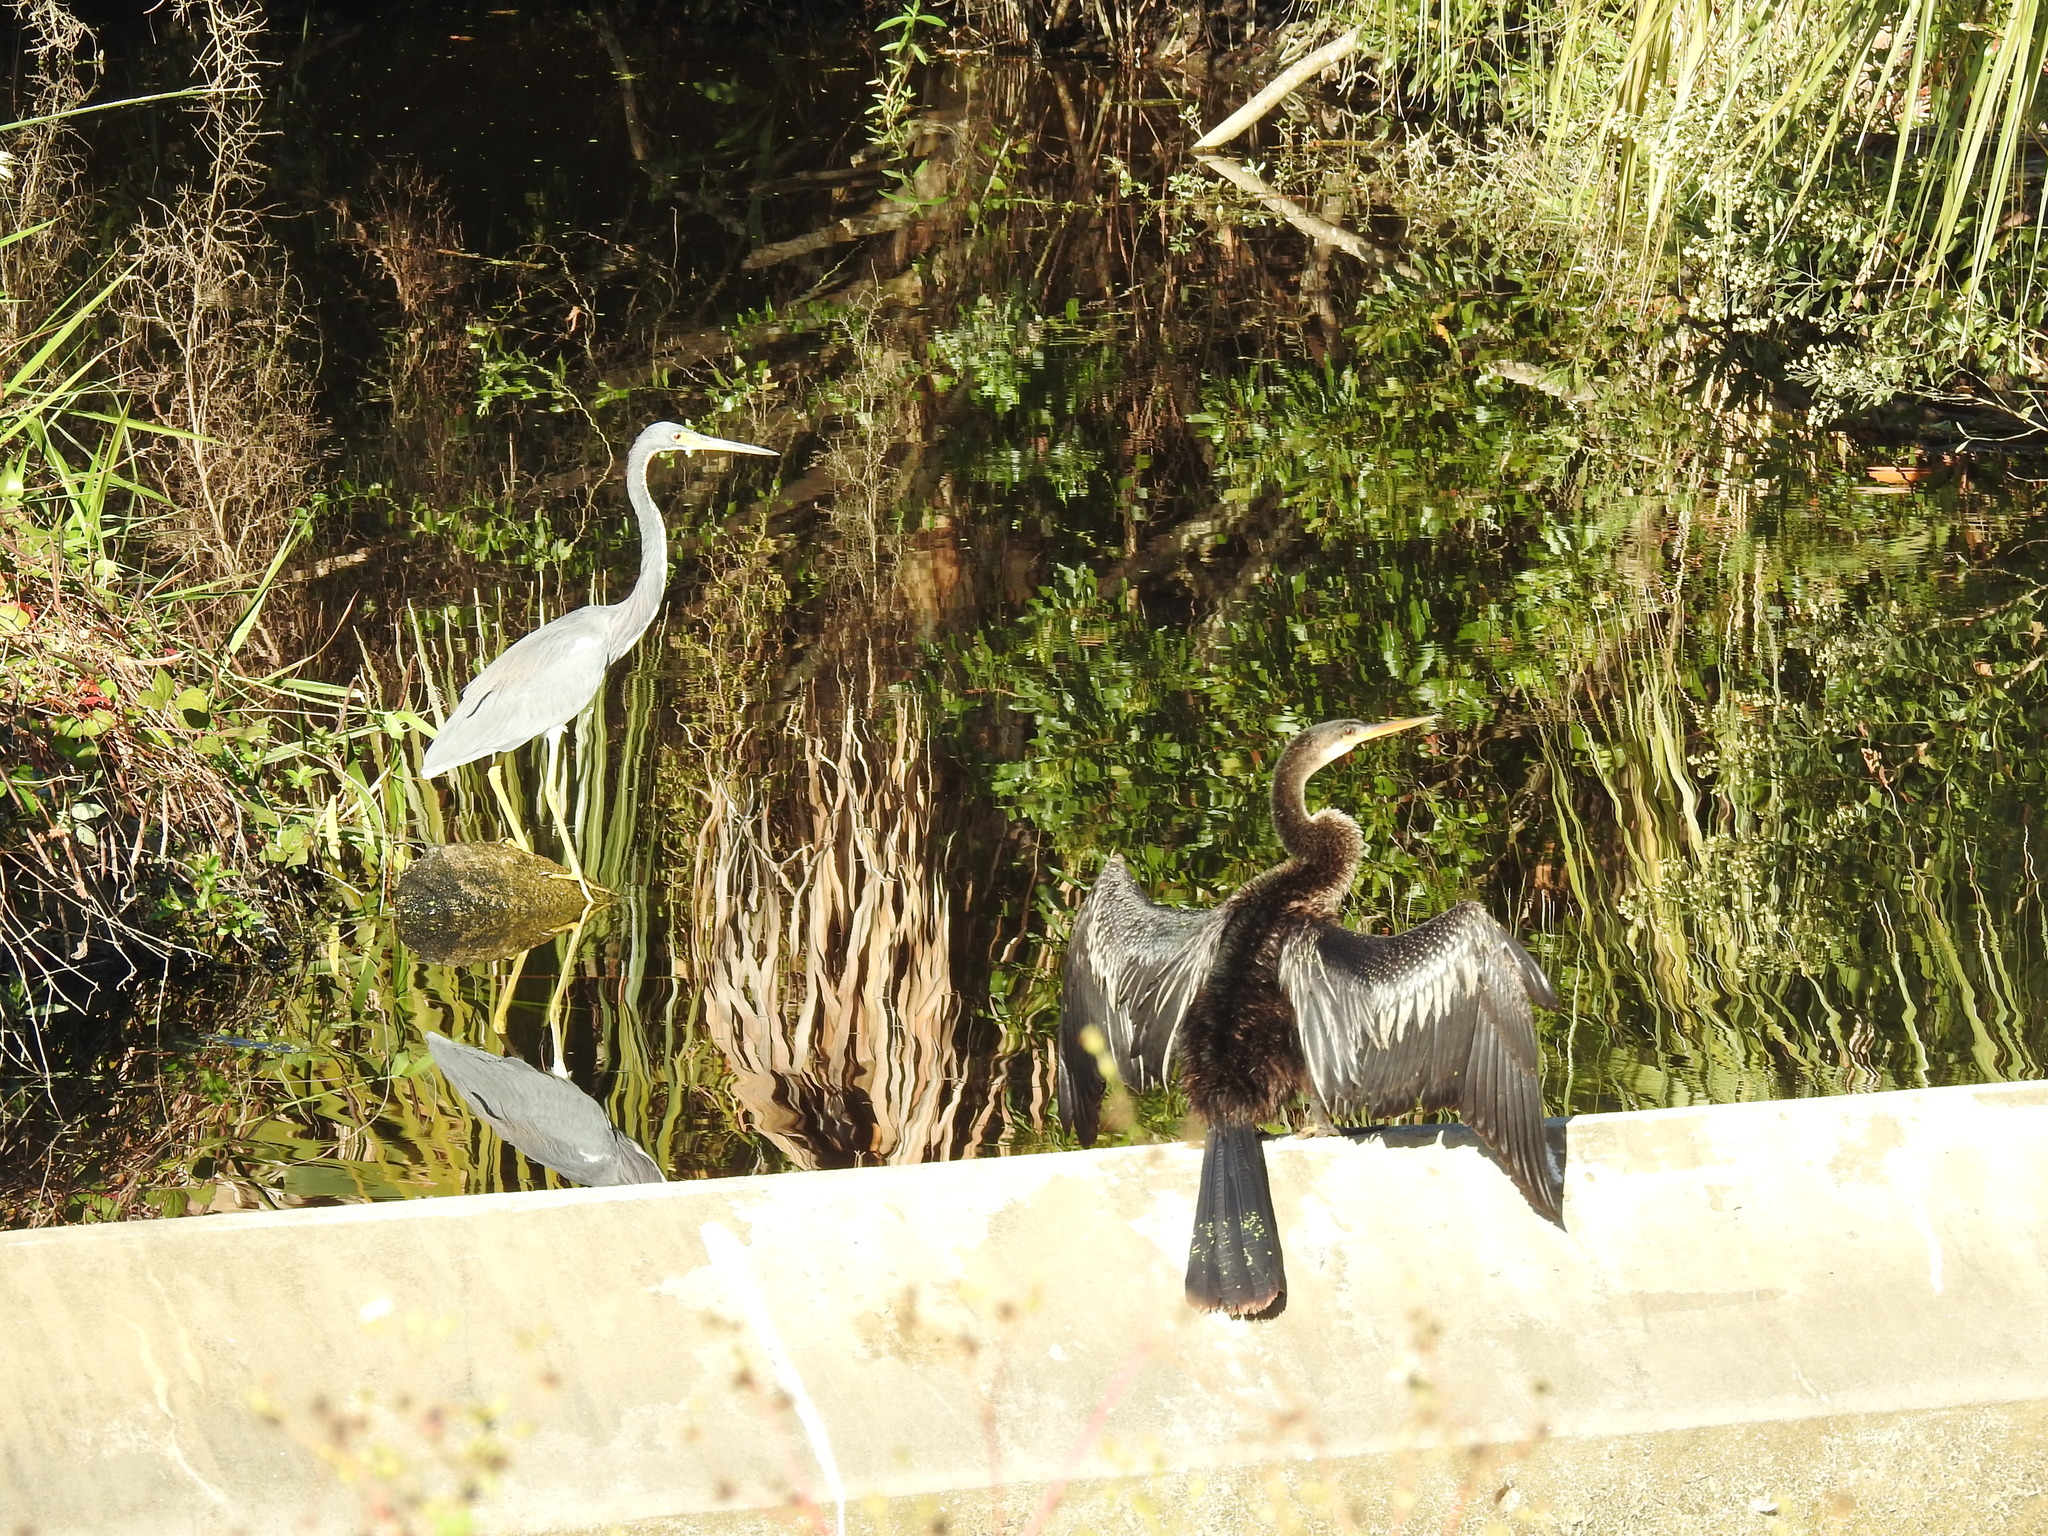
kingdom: Animalia
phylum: Chordata
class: Aves
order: Suliformes
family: Anhingidae
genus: Anhinga
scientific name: Anhinga anhinga
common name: Anhinga
